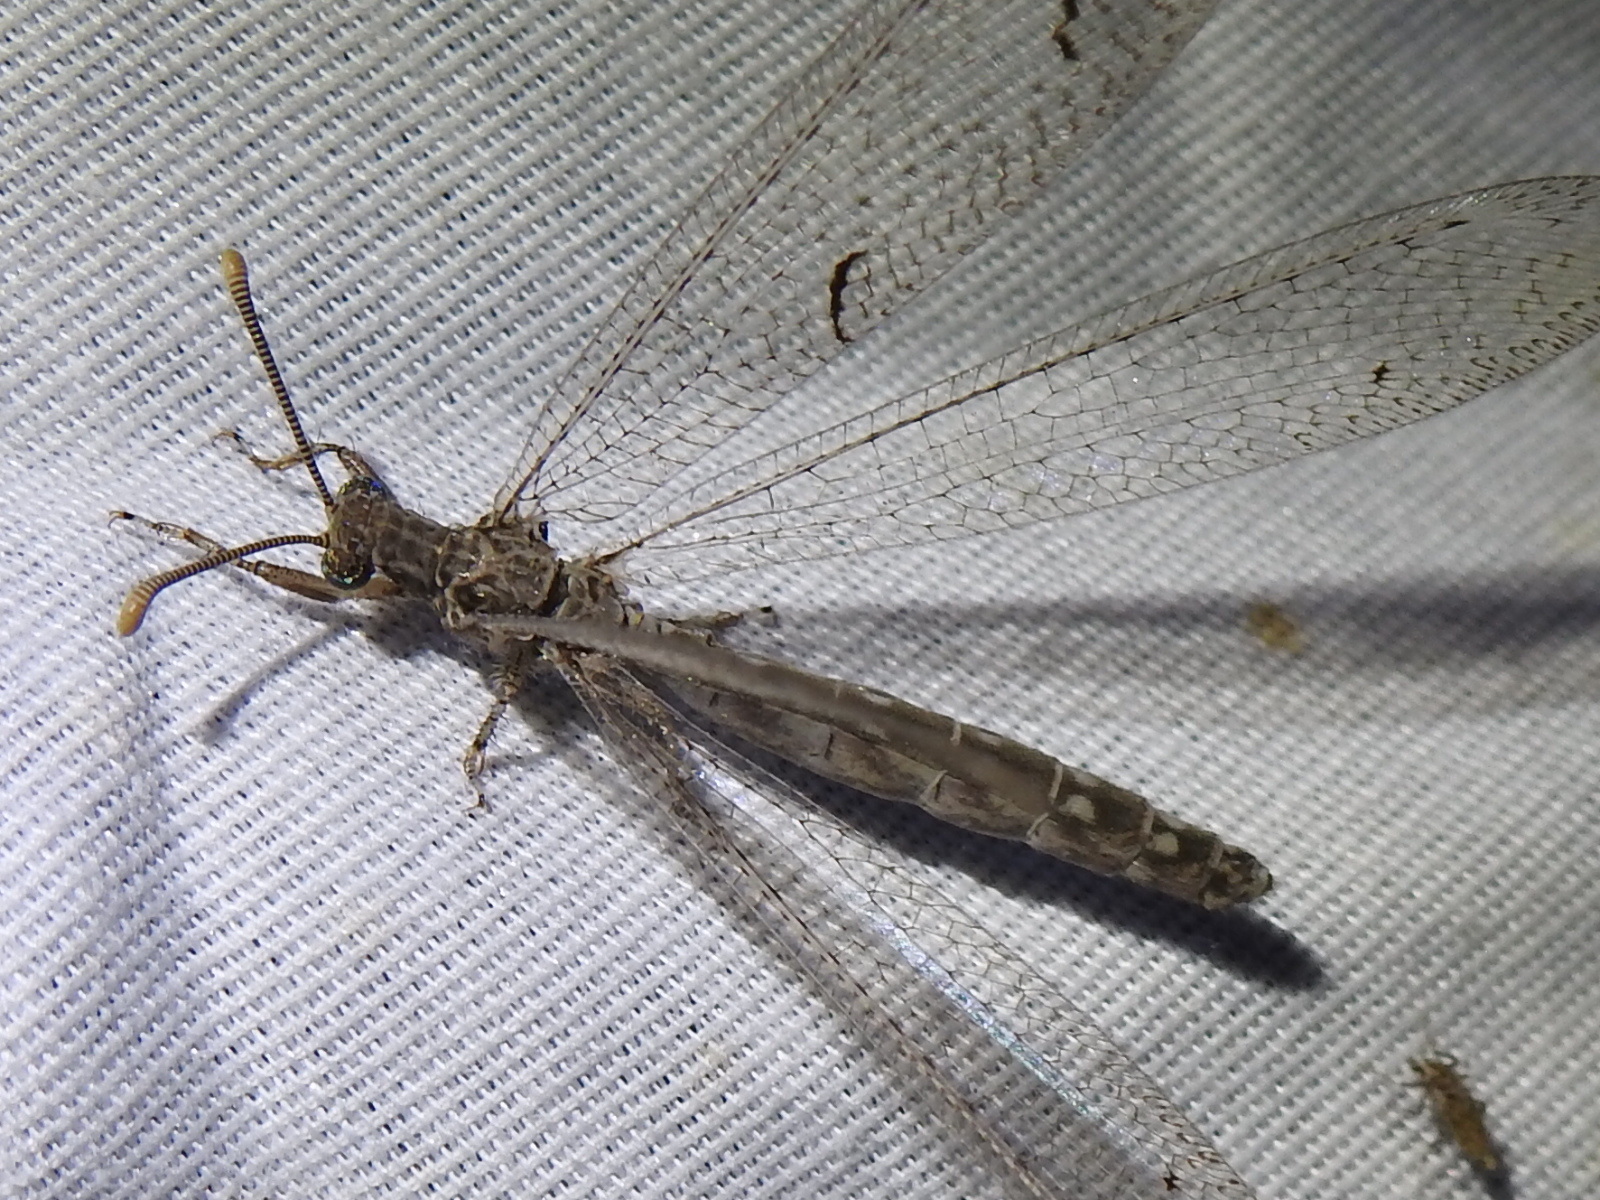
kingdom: Animalia
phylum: Arthropoda
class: Insecta
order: Neuroptera
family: Myrmeleontidae
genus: Euptilon
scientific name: Euptilon ornatum
